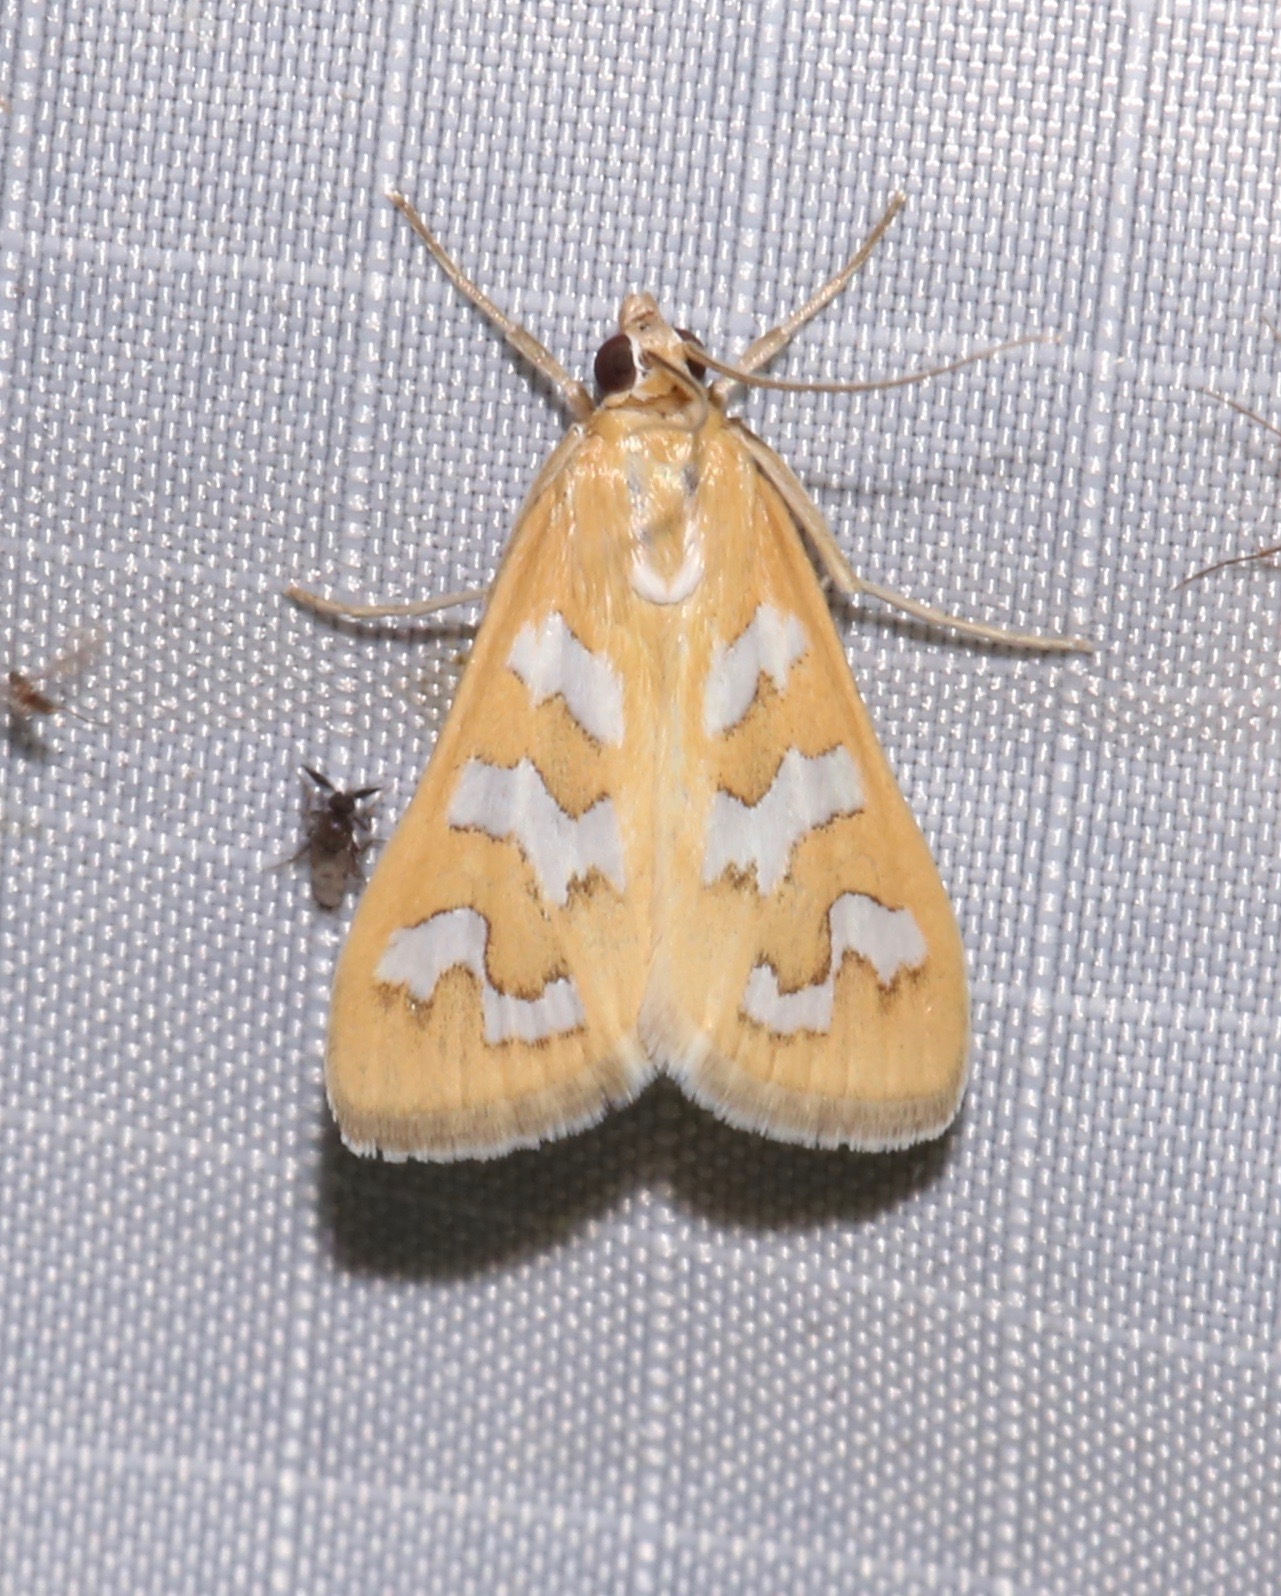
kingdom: Animalia
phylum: Arthropoda
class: Insecta
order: Lepidoptera
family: Crambidae
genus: Diastictis
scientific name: Diastictis fracturalis
